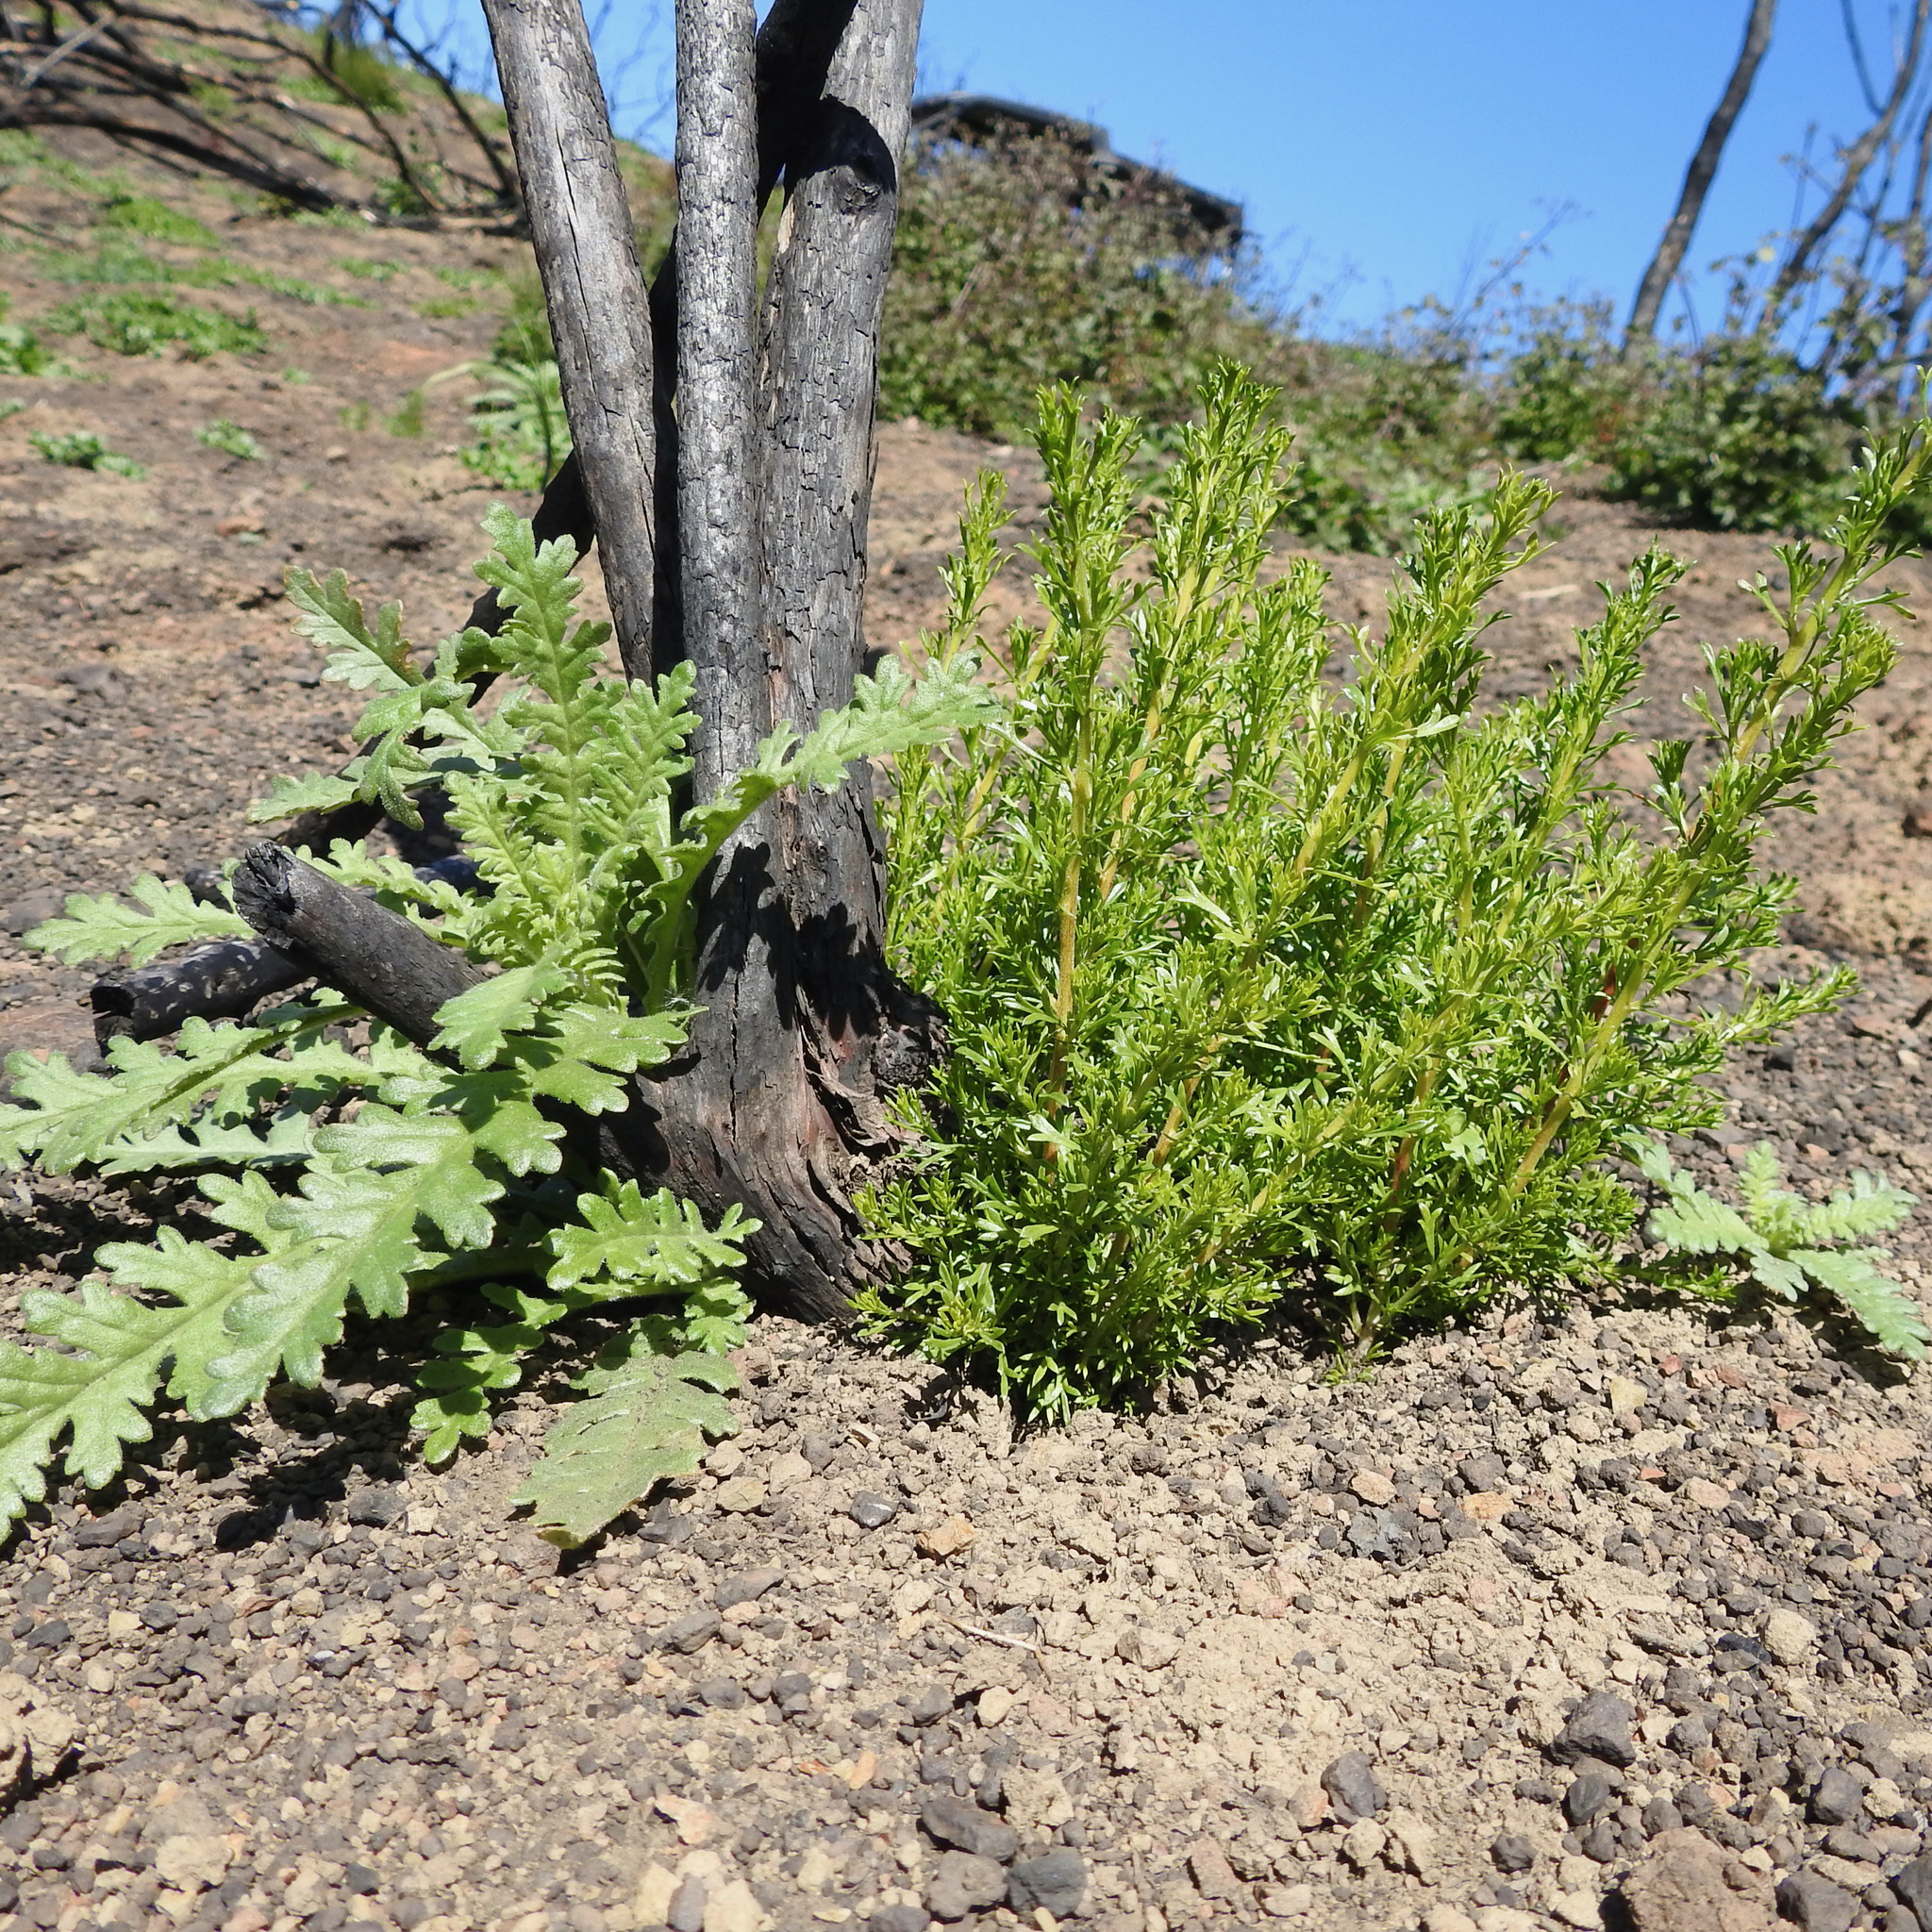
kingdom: Plantae
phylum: Tracheophyta
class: Magnoliopsida
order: Rosales
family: Rosaceae
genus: Adenostoma
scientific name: Adenostoma fasciculatum
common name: Chamise
